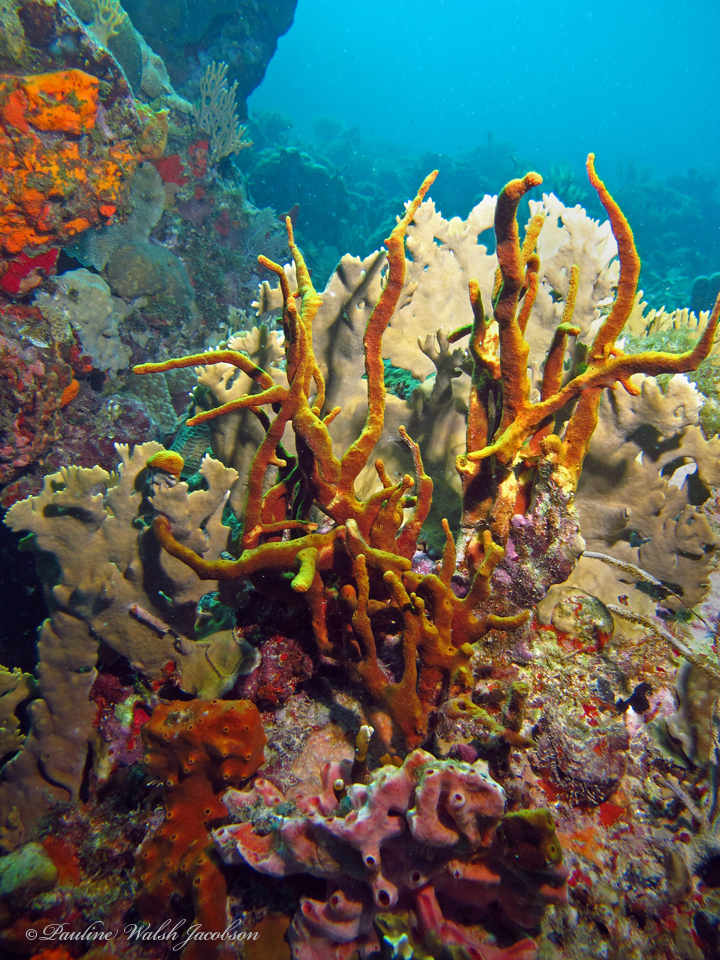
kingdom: Animalia
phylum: Porifera
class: Demospongiae
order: Verongiida
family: Aplysinidae
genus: Aplysina
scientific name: Aplysina fulva
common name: Scattered pore rope sponge
